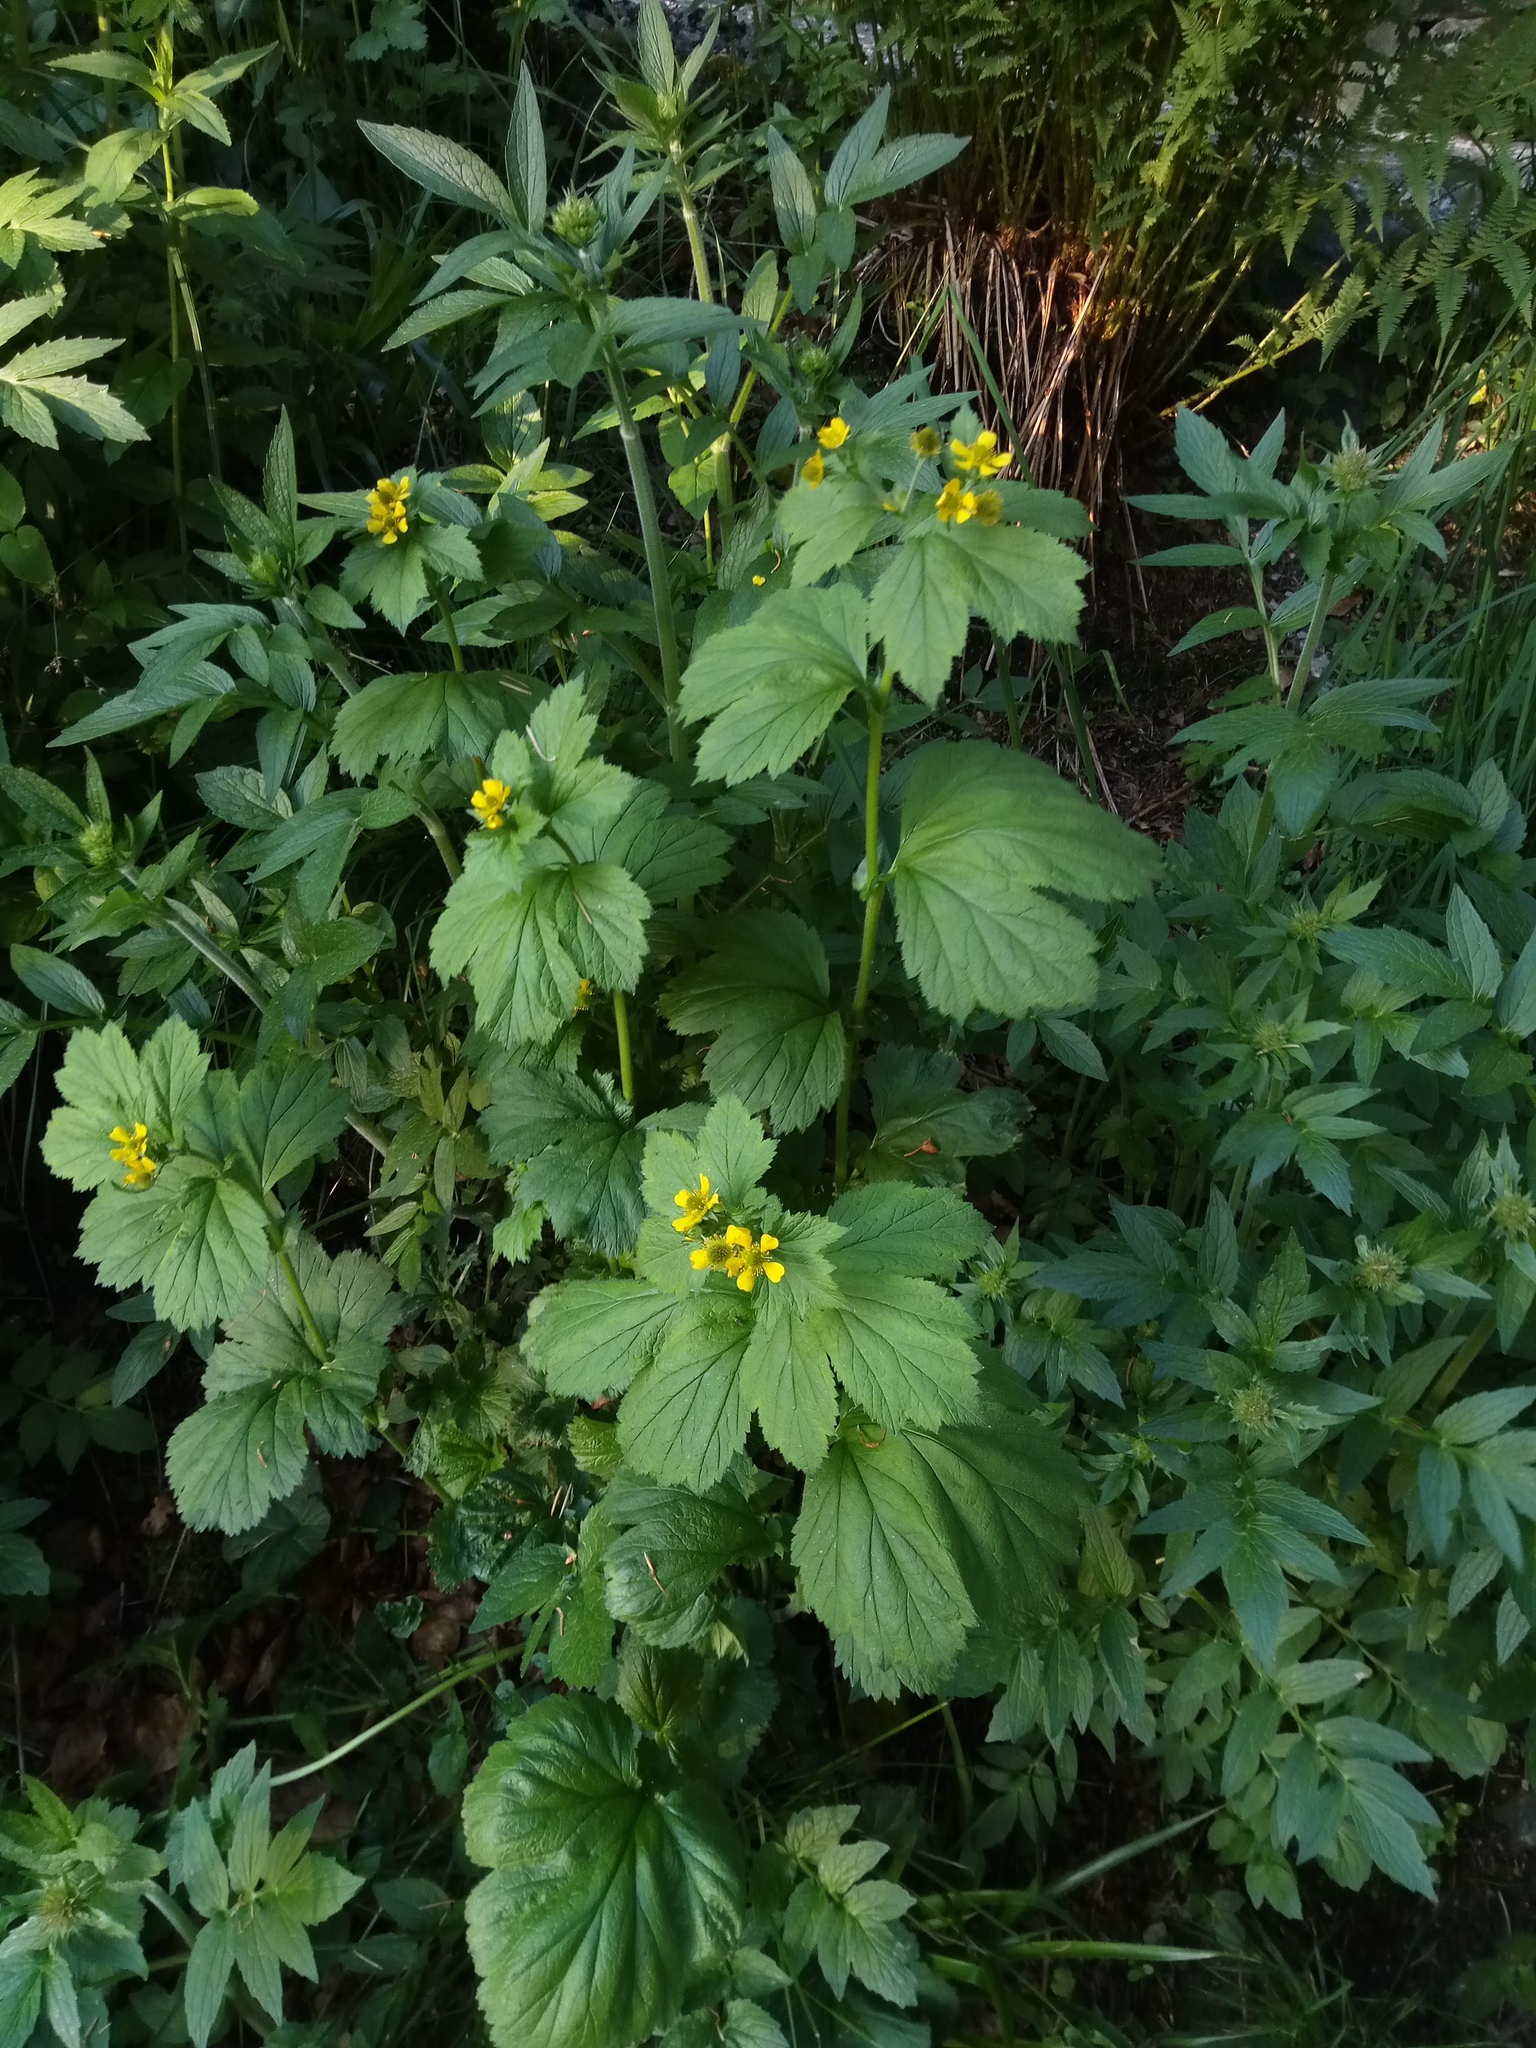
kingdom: Plantae
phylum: Tracheophyta
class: Magnoliopsida
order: Rosales
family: Rosaceae
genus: Geum
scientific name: Geum macrophyllum
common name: Large-leaved avens
